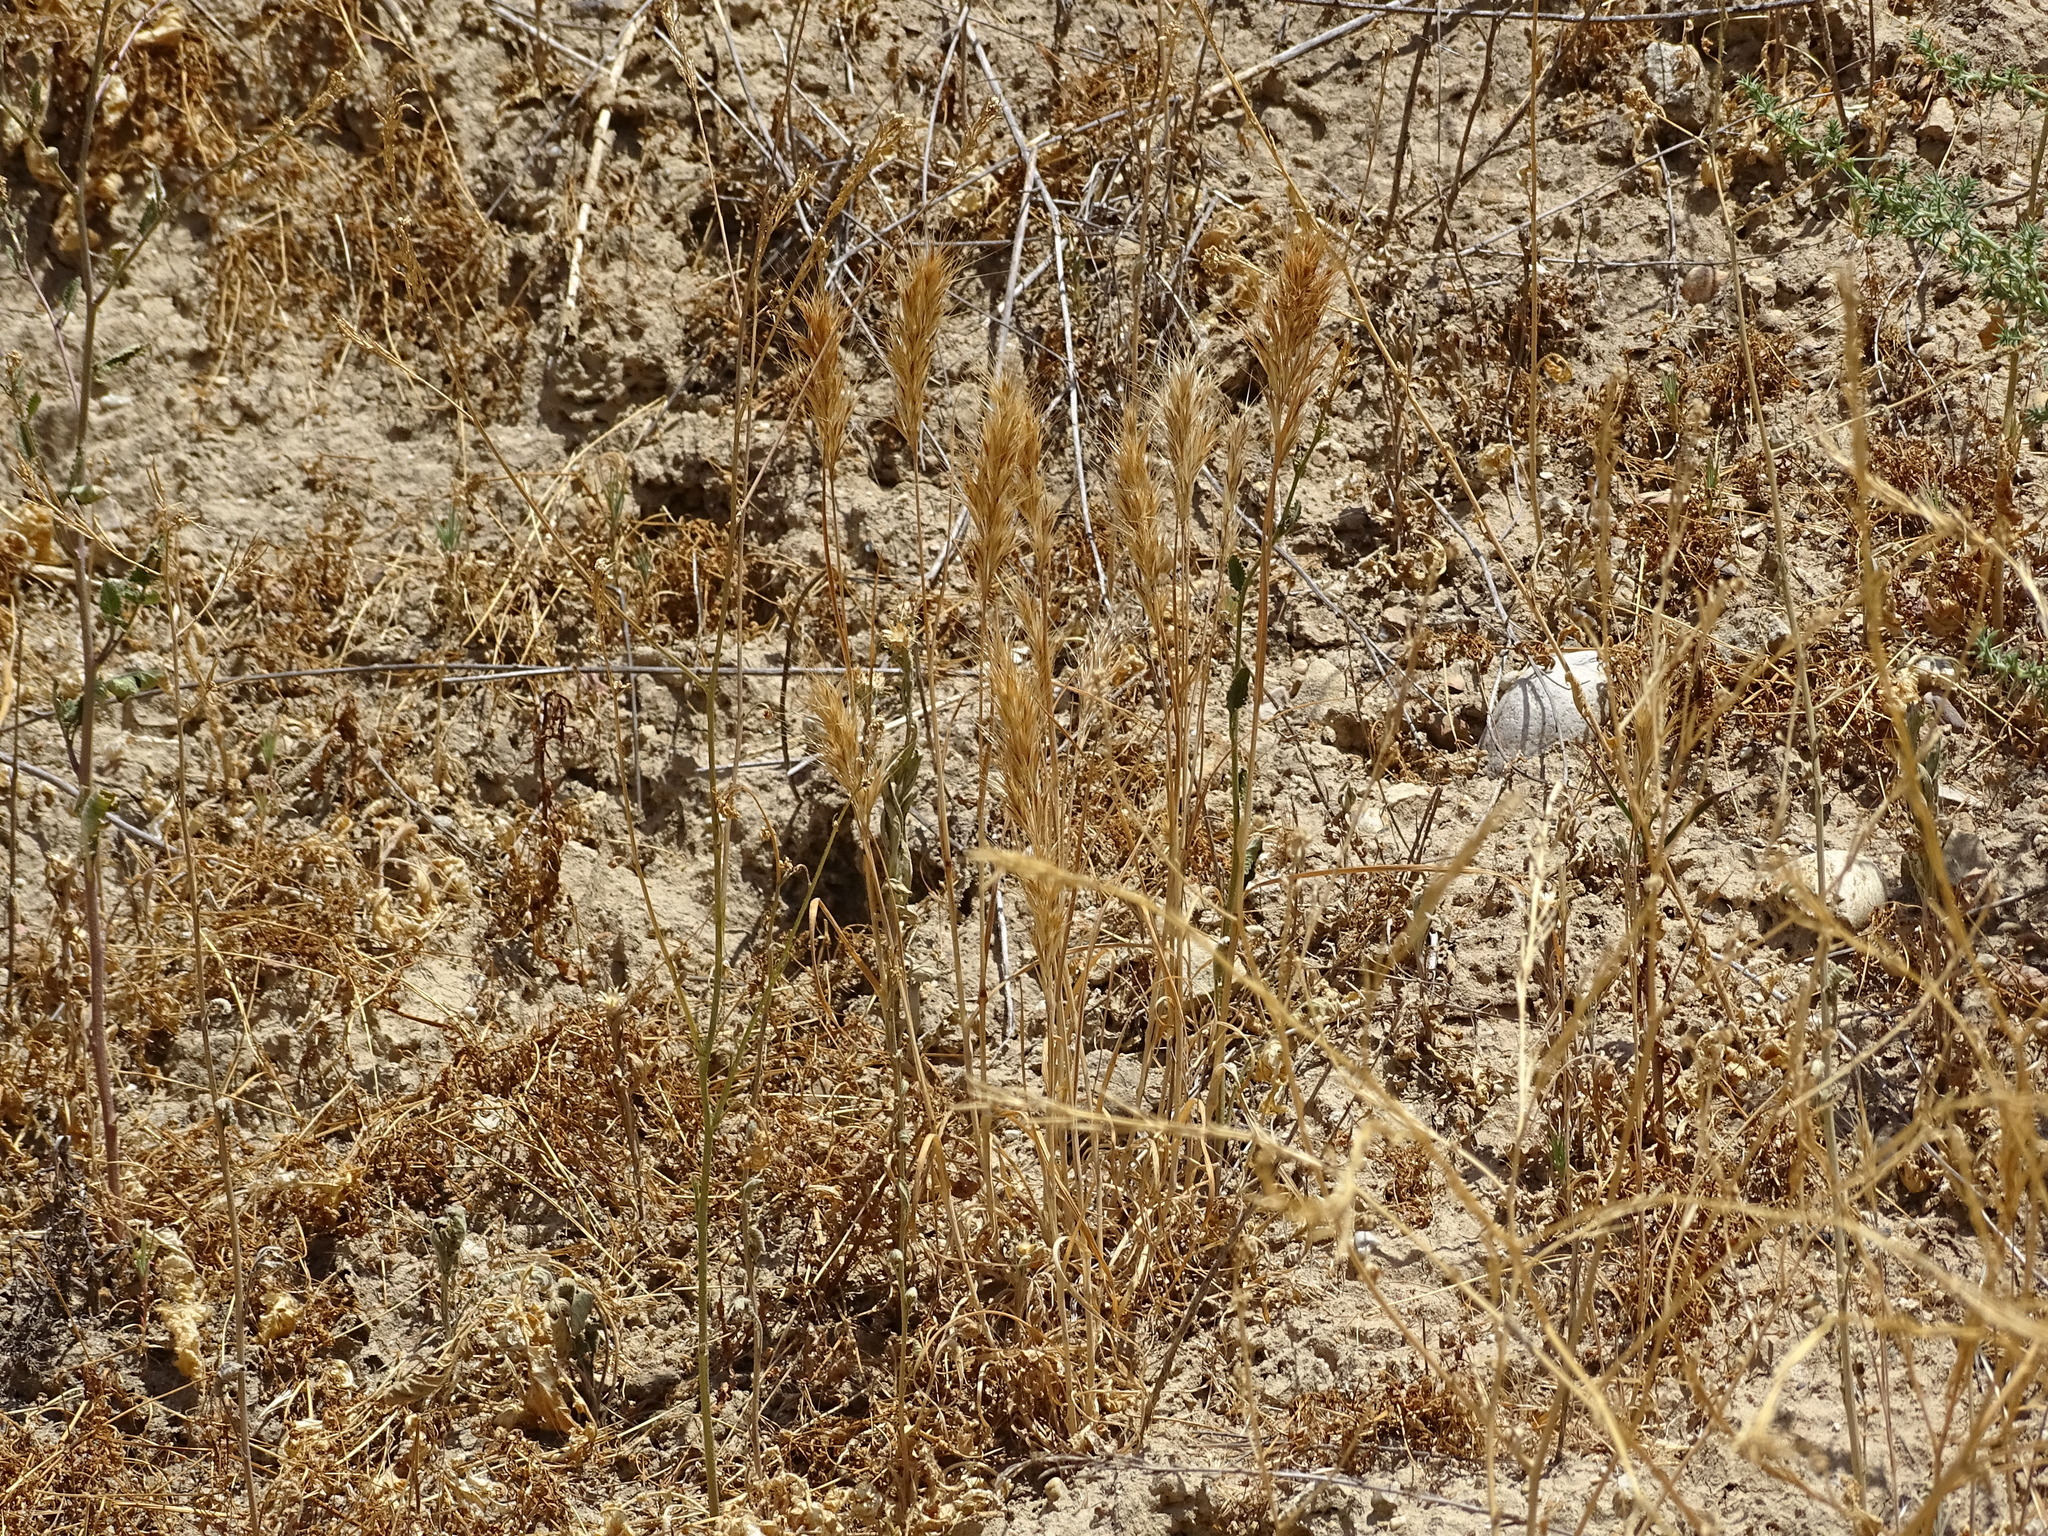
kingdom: Plantae
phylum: Tracheophyta
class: Liliopsida
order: Poales
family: Poaceae
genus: Bromus
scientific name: Bromus madritensis
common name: Compact brome
